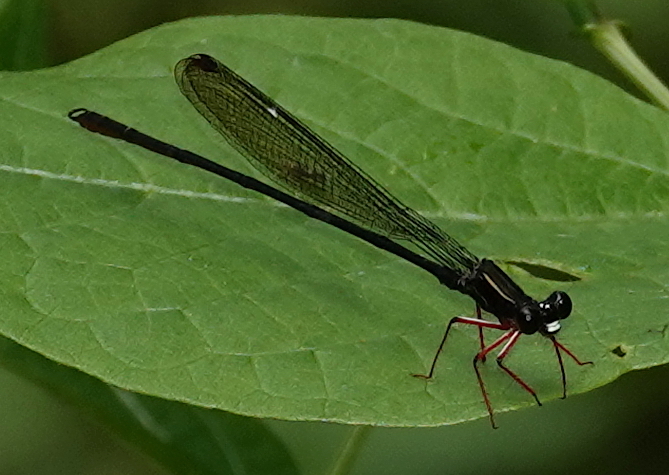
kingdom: Animalia
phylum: Arthropoda
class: Insecta
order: Odonata
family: Heteragrionidae
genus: Heteropodagrion
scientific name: Heteropodagrion superbum
